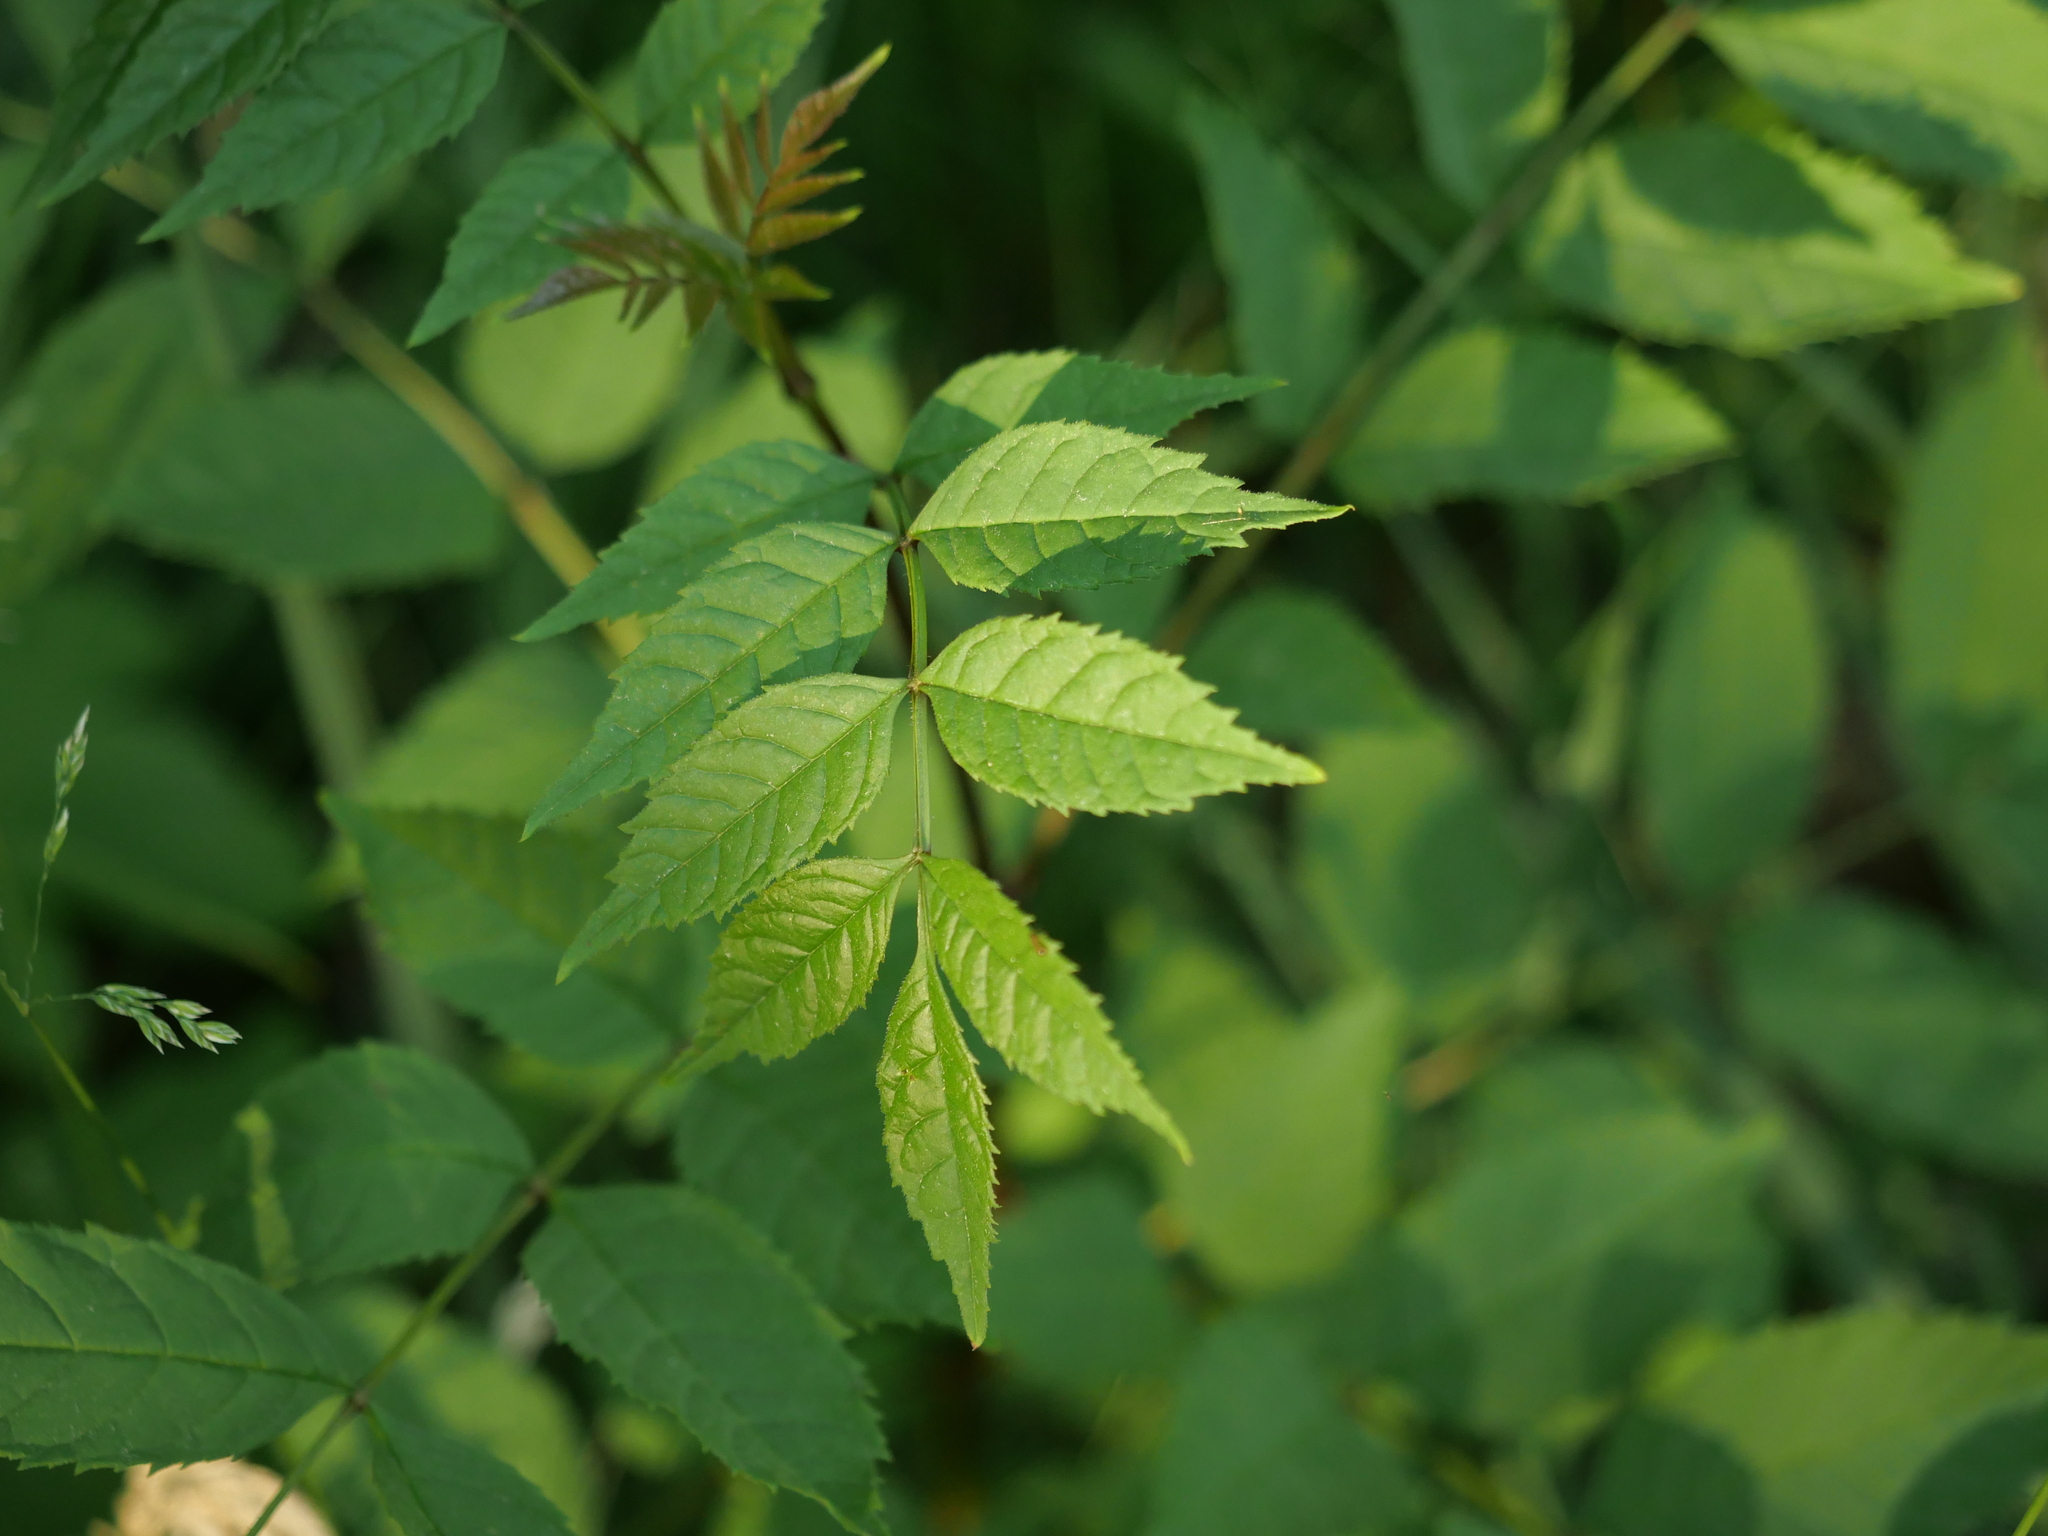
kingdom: Plantae
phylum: Tracheophyta
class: Magnoliopsida
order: Lamiales
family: Oleaceae
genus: Fraxinus
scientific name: Fraxinus excelsior
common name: European ash
